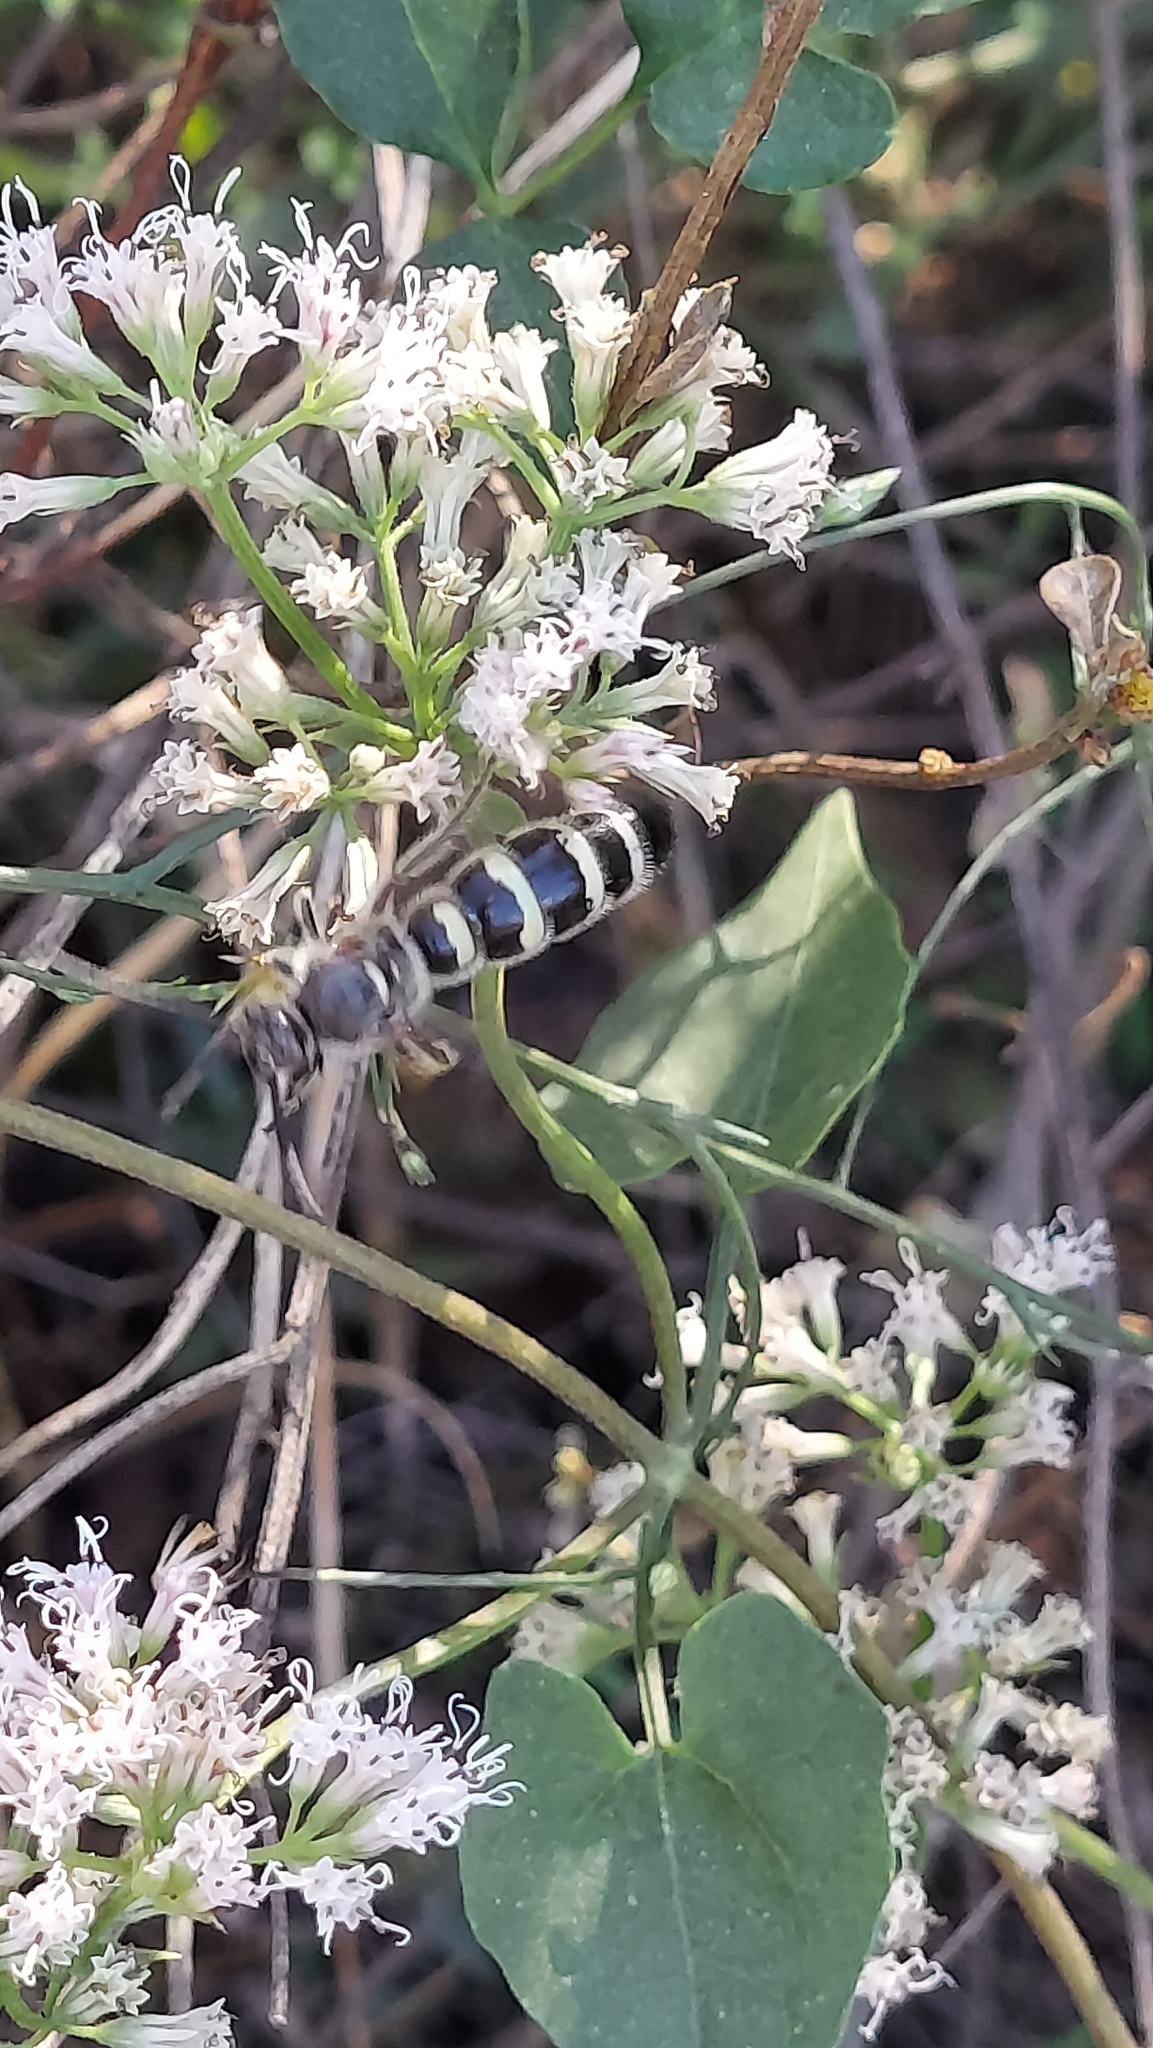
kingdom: Animalia
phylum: Arthropoda
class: Insecta
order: Hymenoptera
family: Scoliidae
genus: Dielis
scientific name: Dielis
